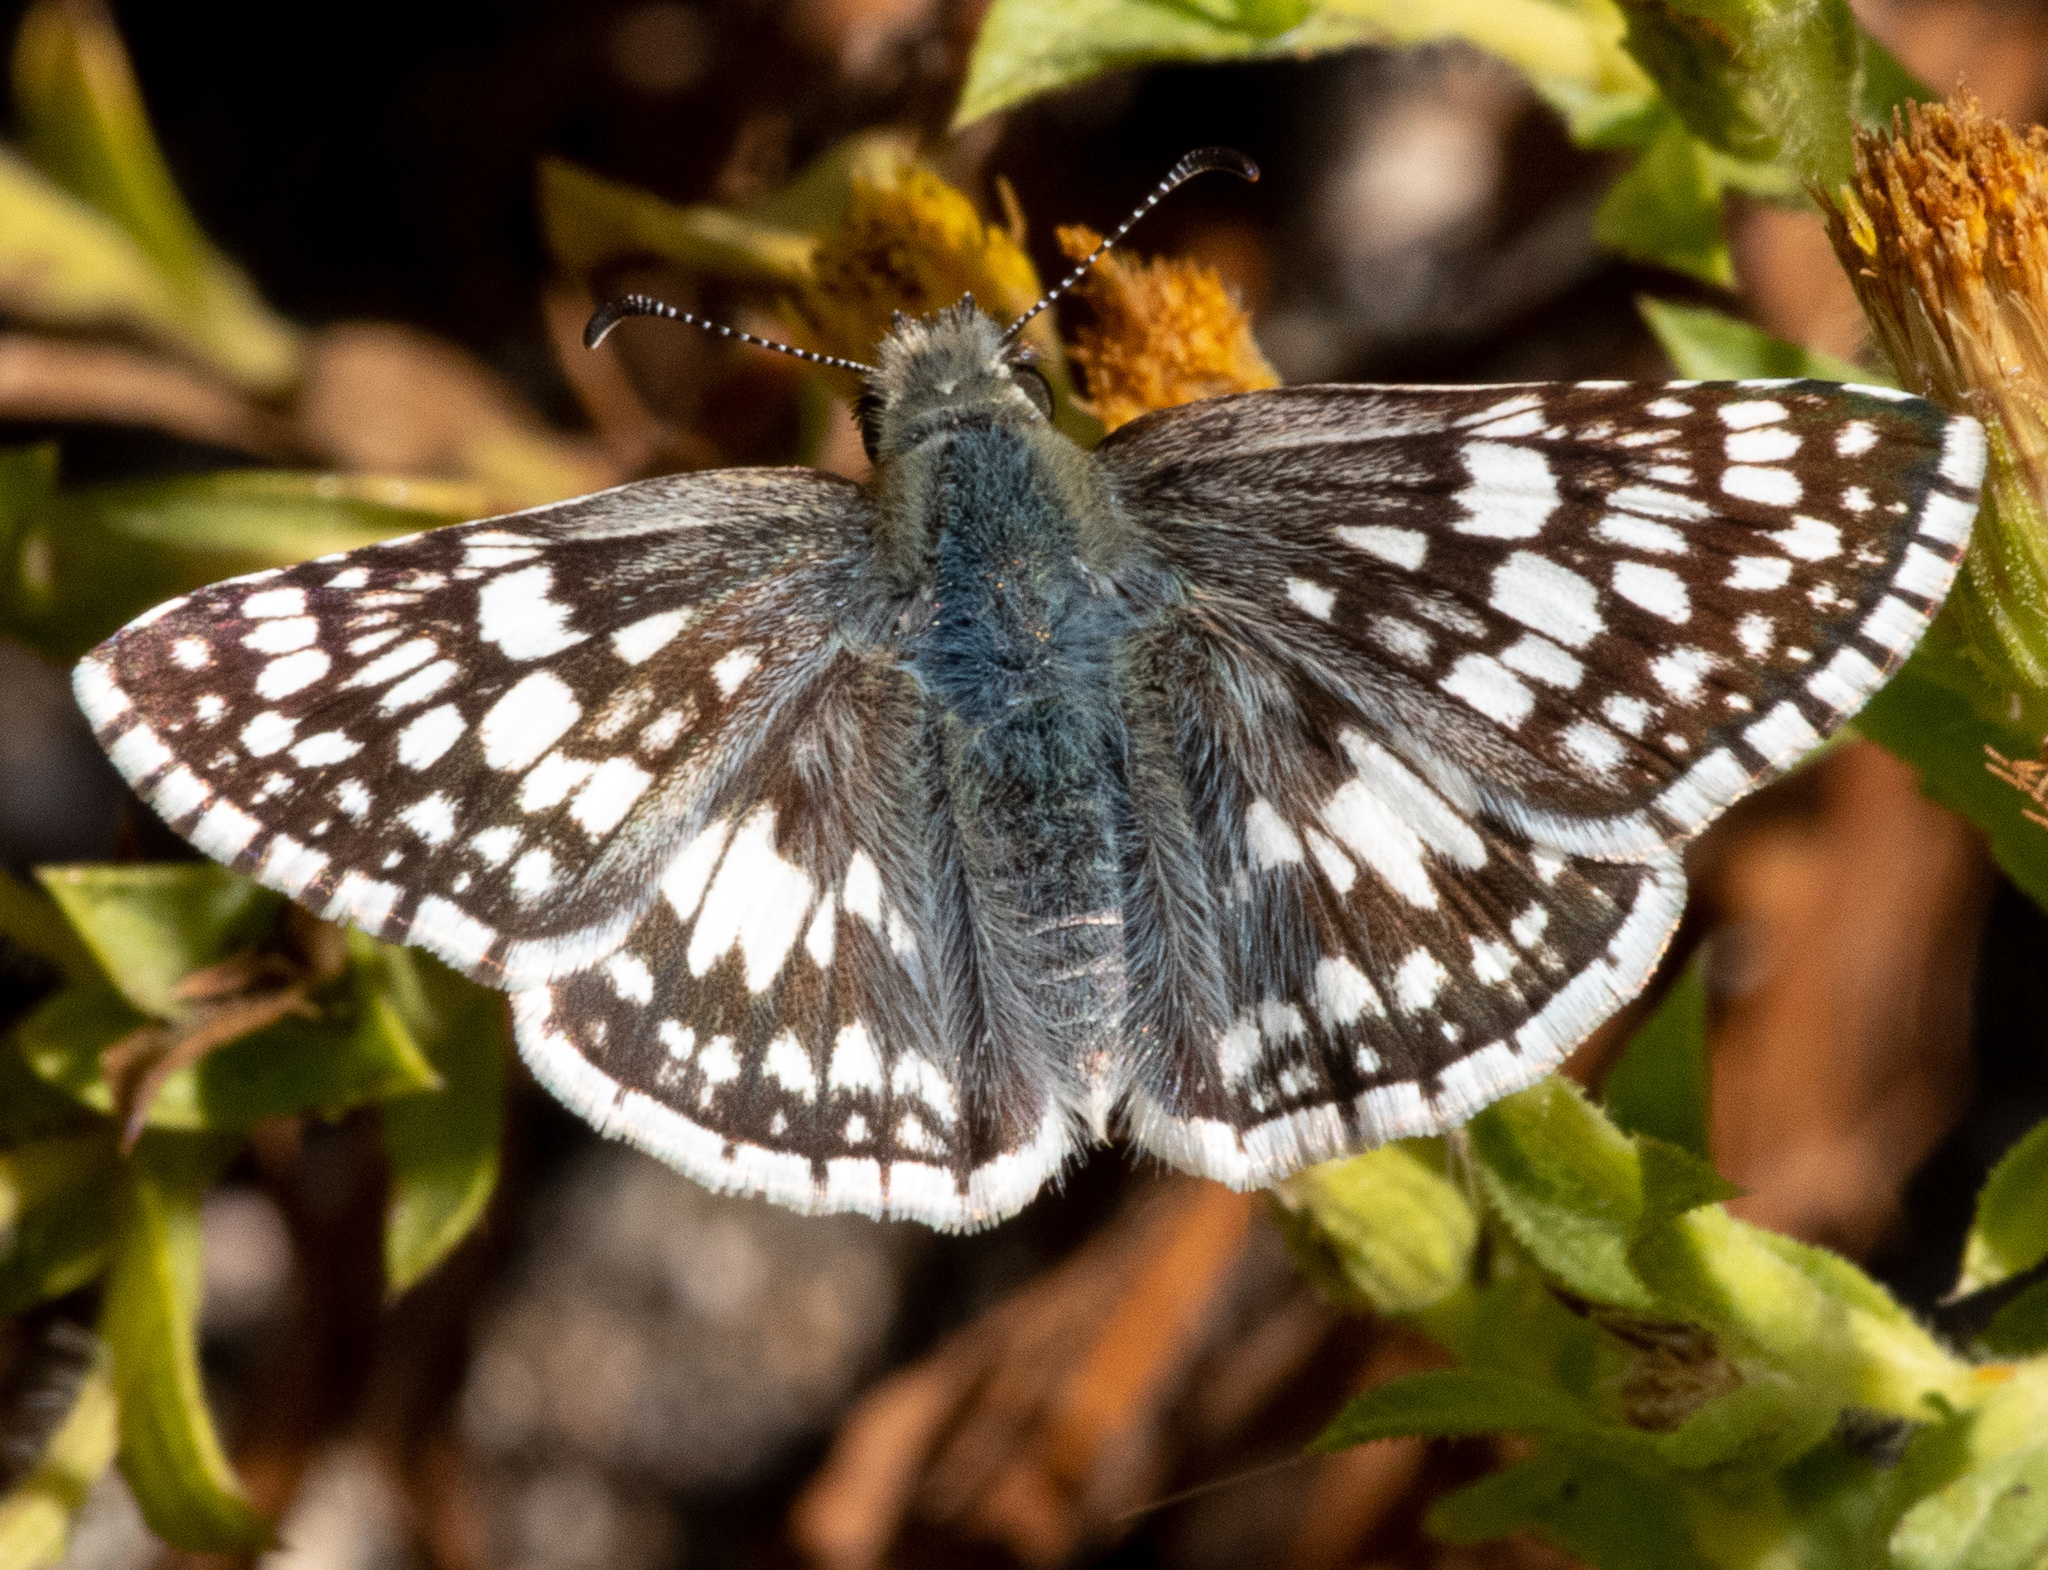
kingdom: Animalia
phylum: Arthropoda
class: Insecta
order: Lepidoptera
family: Hesperiidae
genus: Burnsius
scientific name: Burnsius communis
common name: Common checkered-skipper
